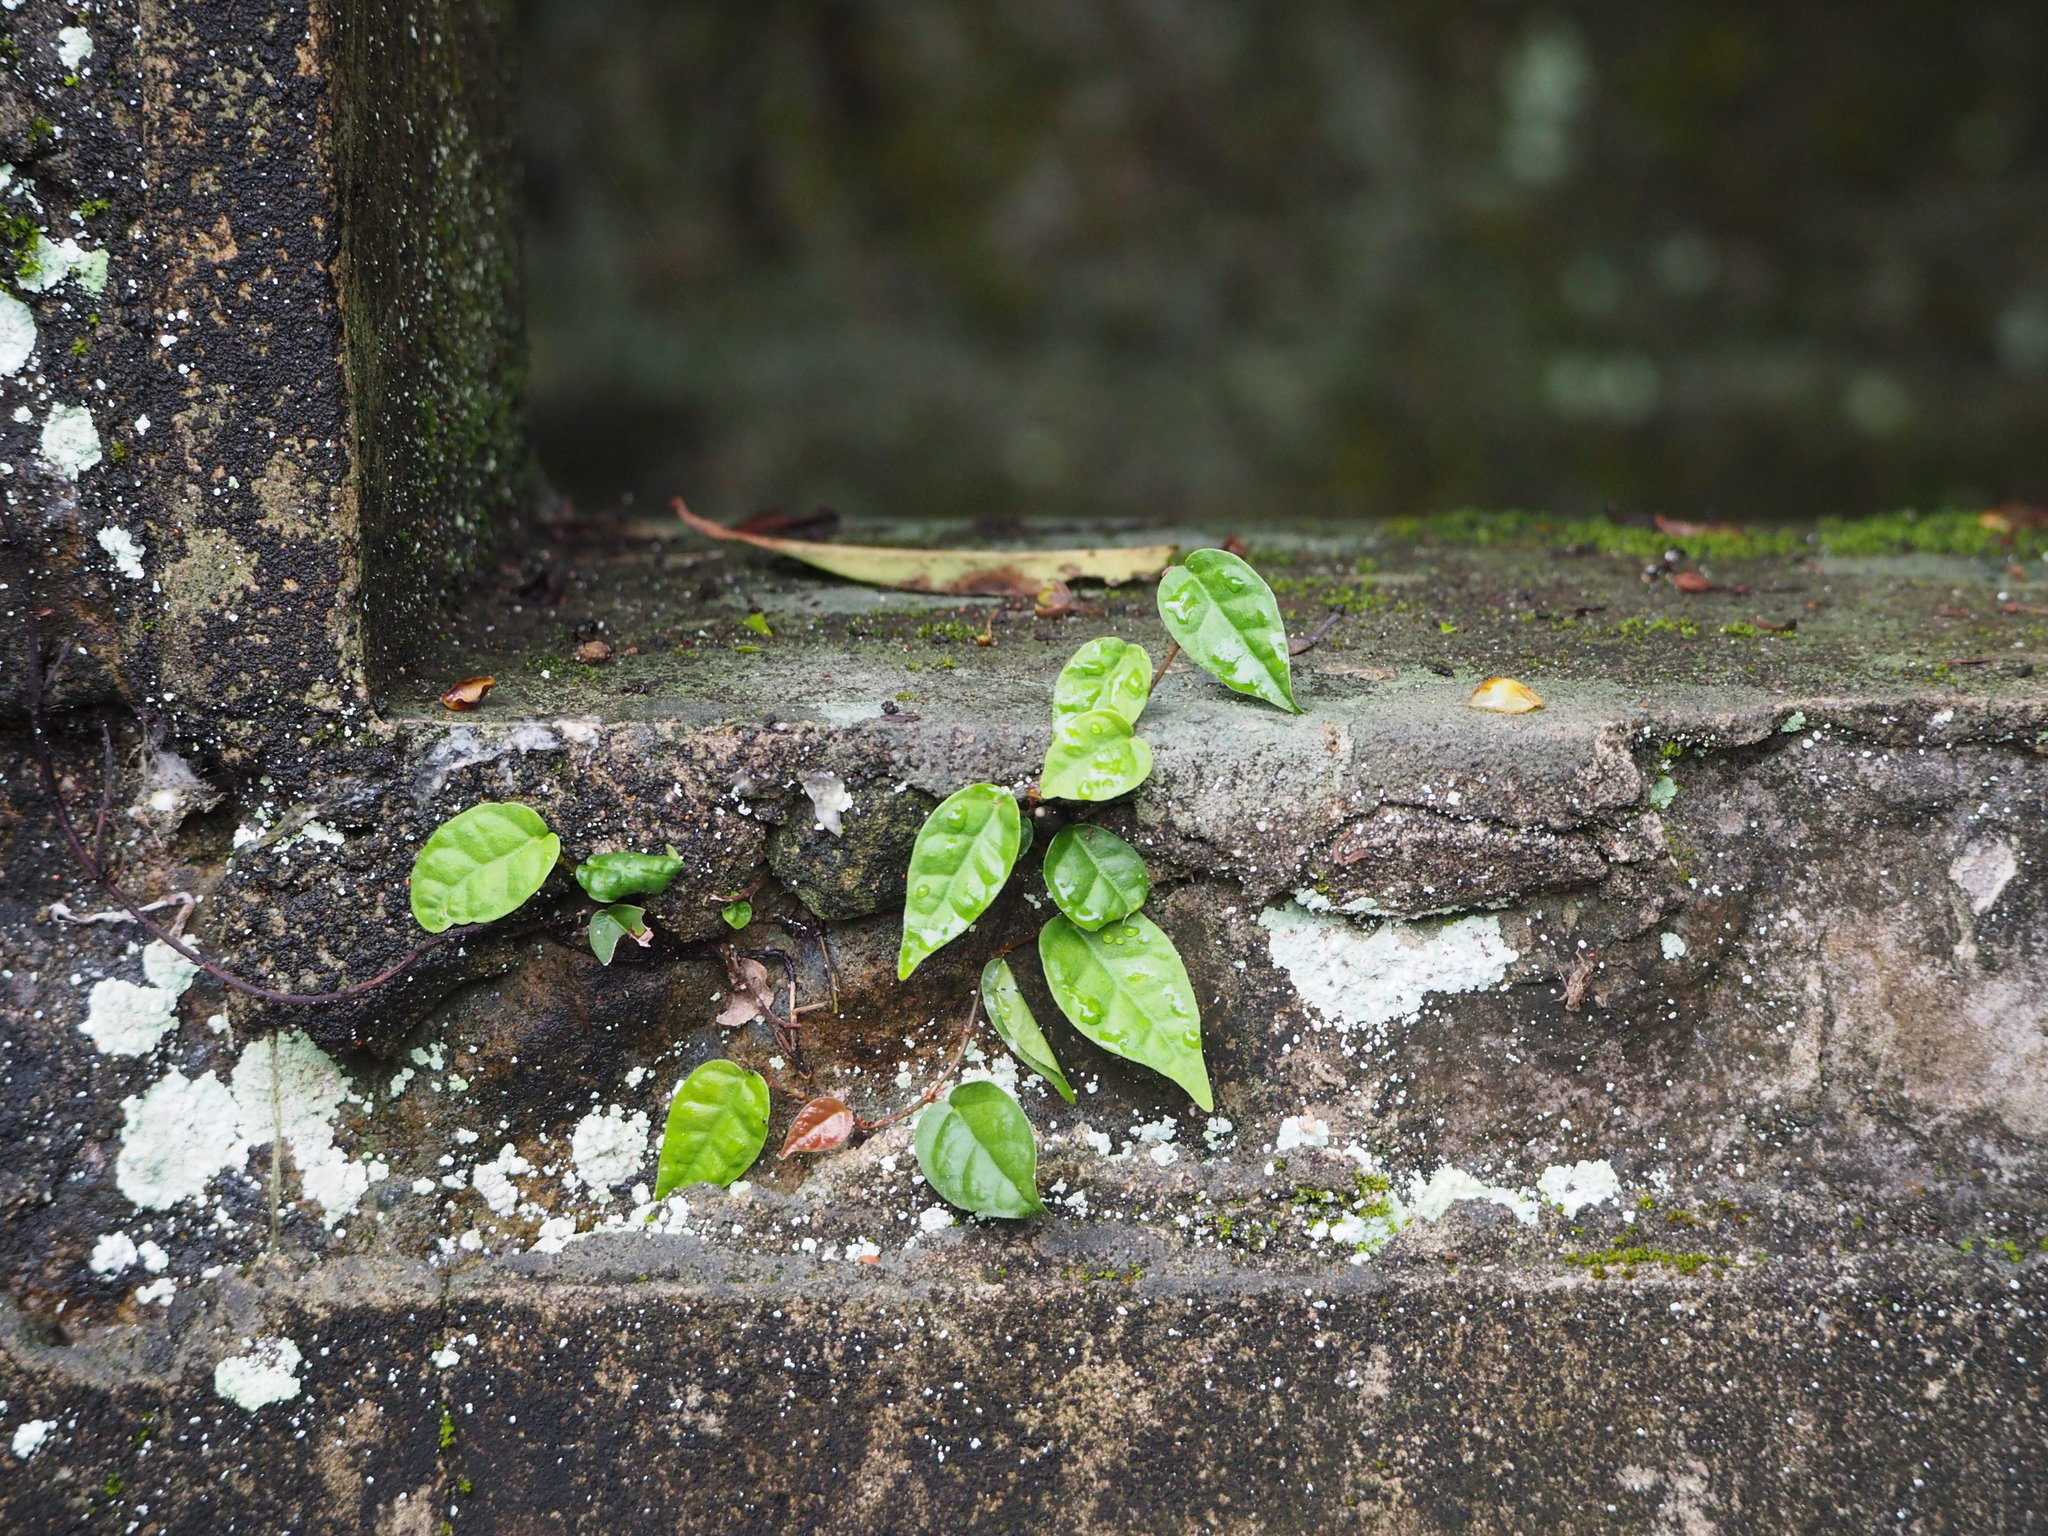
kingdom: Plantae
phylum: Tracheophyta
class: Magnoliopsida
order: Rosales
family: Moraceae
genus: Ficus
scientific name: Ficus sarmentosa
